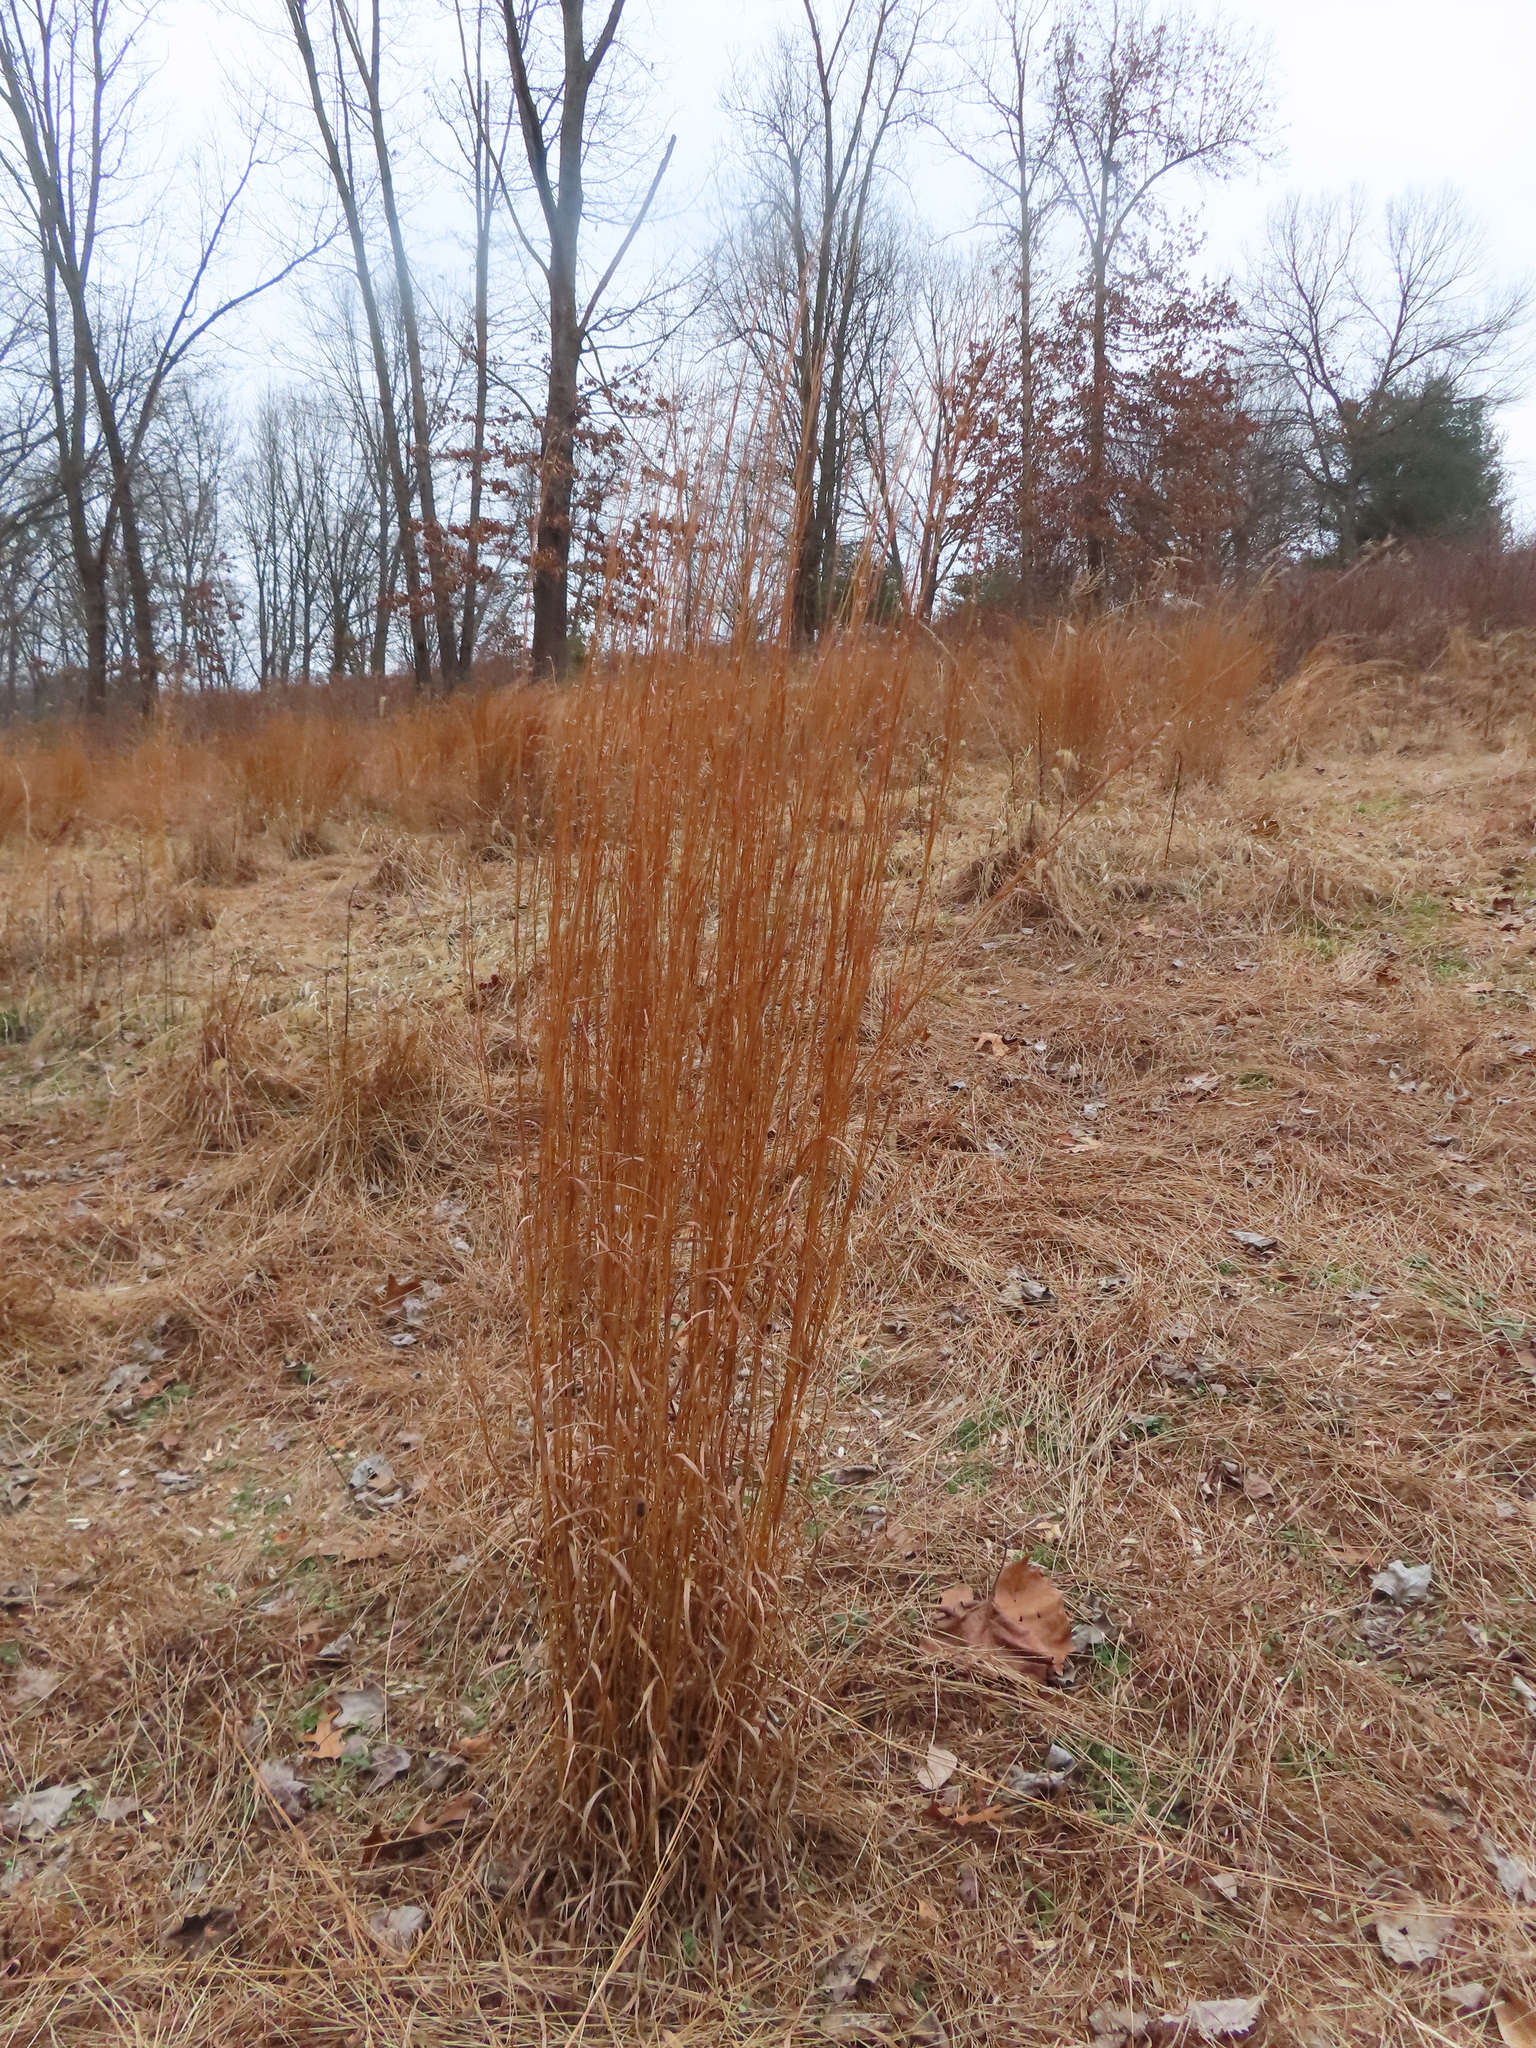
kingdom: Plantae
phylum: Tracheophyta
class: Liliopsida
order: Poales
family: Poaceae
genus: Schizachyrium
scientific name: Schizachyrium scoparium
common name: Little bluestem
